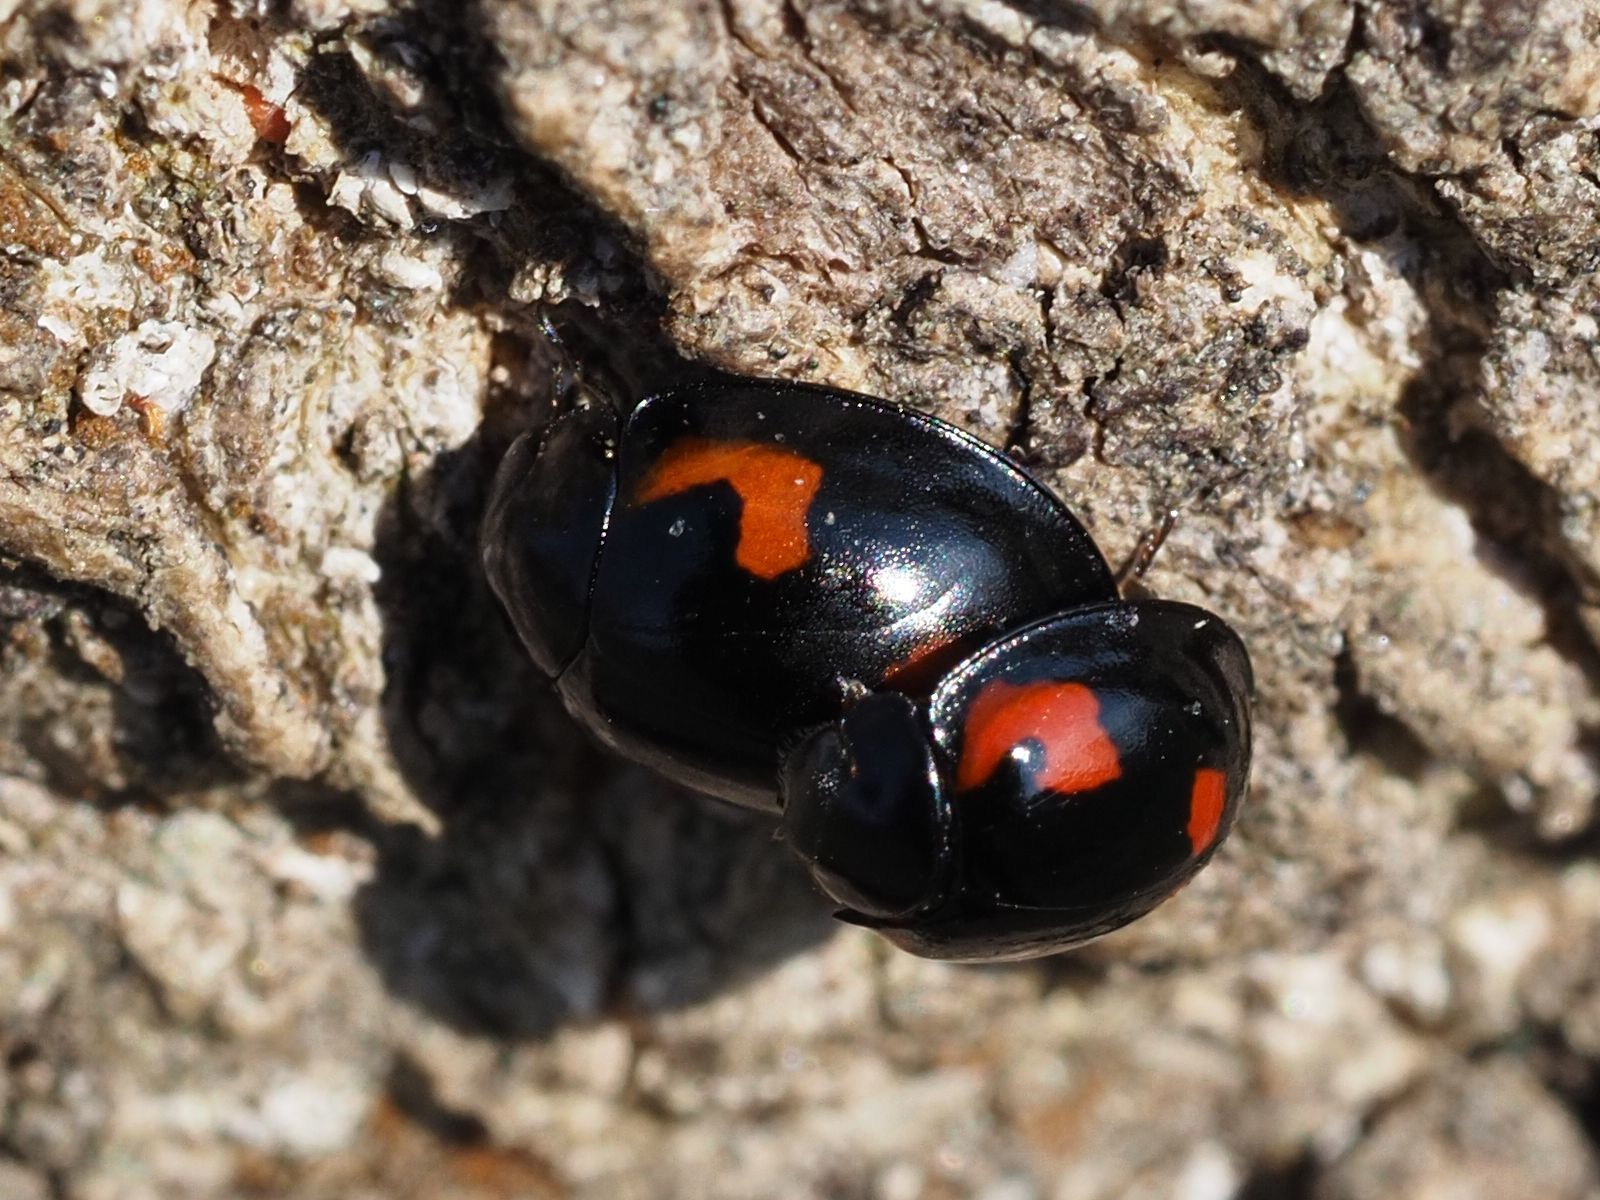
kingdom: Animalia
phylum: Arthropoda
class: Insecta
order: Coleoptera
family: Coccinellidae
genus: Brumus
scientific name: Brumus quadripustulatus
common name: Ladybird beetle
